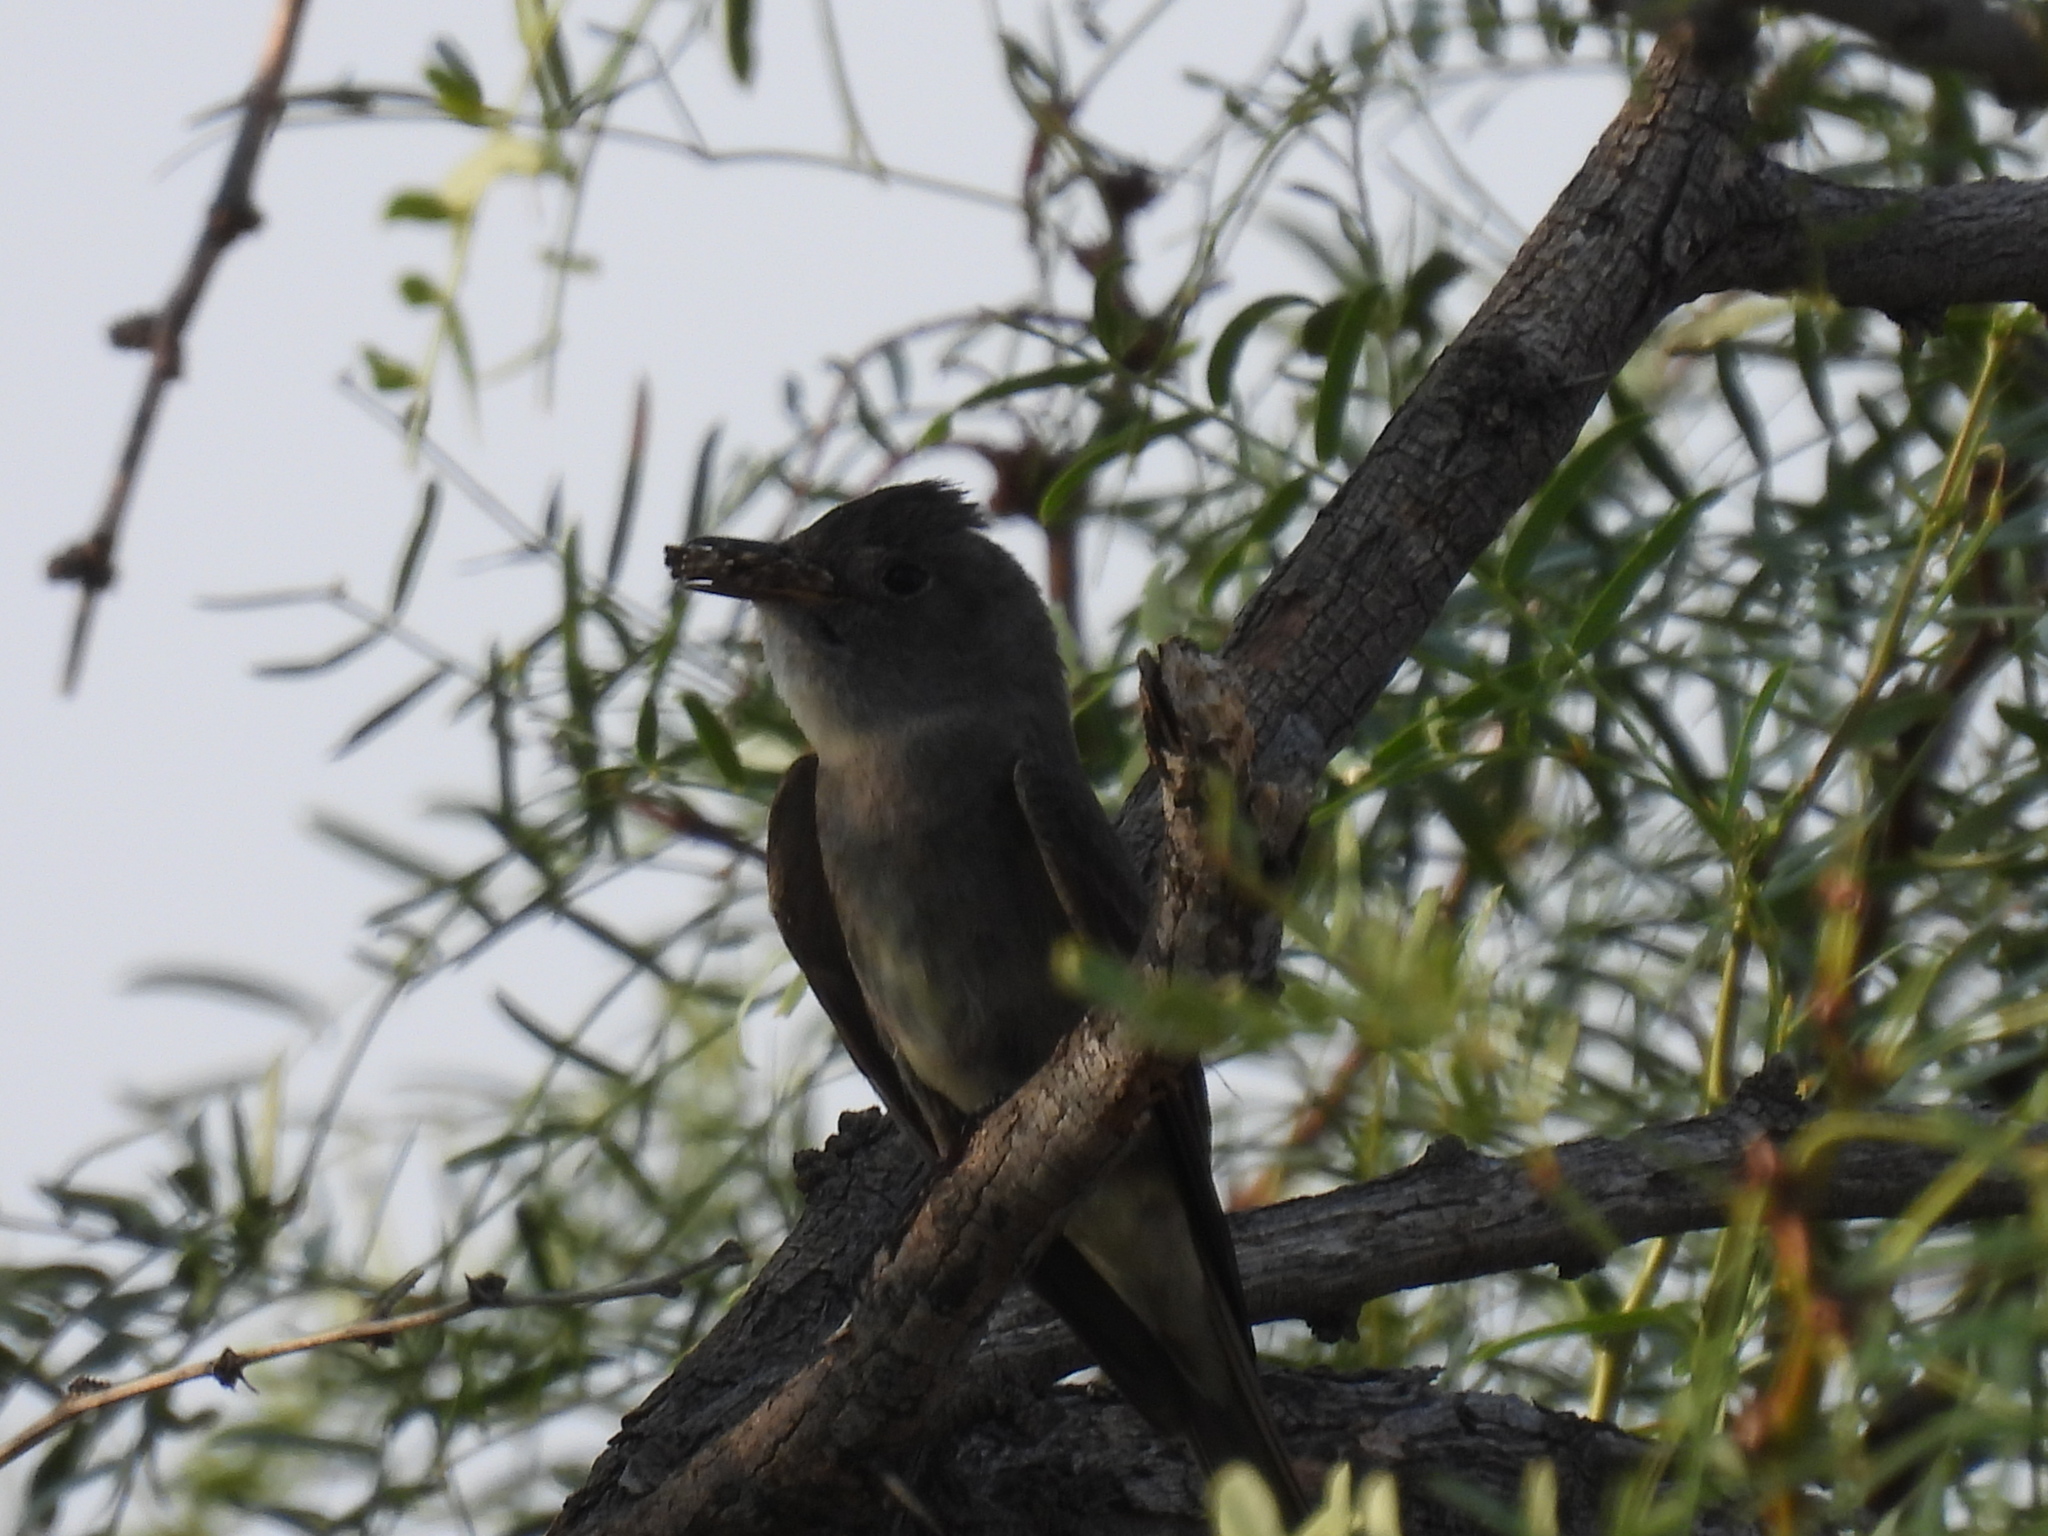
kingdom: Animalia
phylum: Chordata
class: Aves
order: Passeriformes
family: Tyrannidae
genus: Contopus
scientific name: Contopus sordidulus
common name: Western wood-pewee
